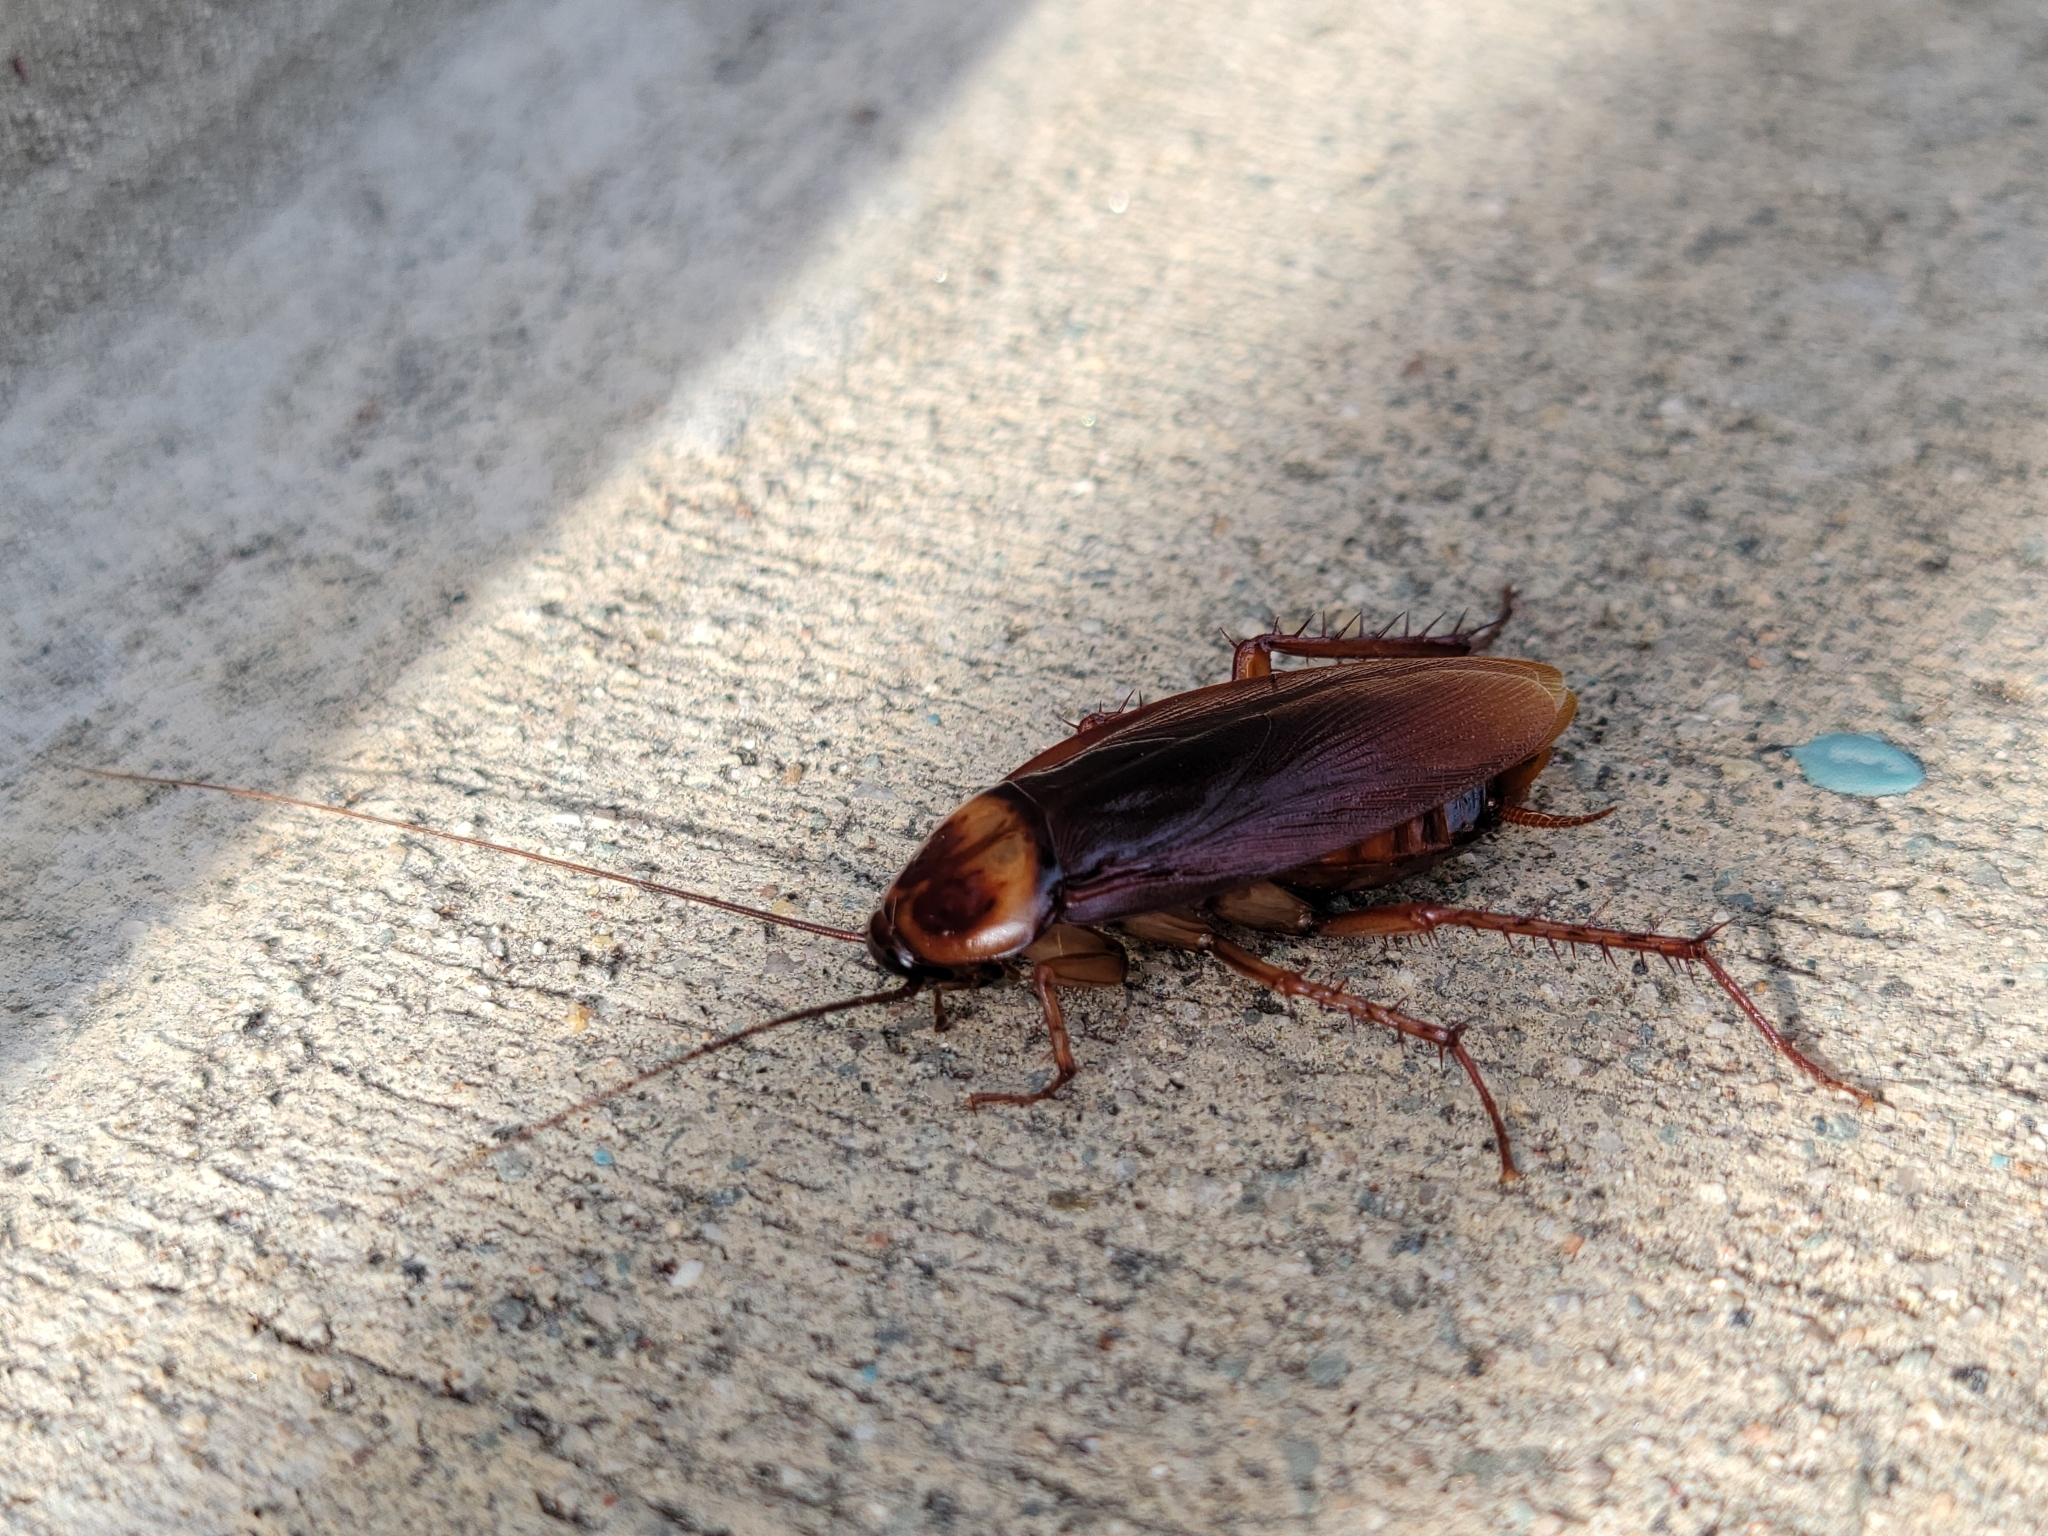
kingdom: Animalia
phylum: Arthropoda
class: Insecta
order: Blattodea
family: Blattidae
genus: Periplaneta
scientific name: Periplaneta americana
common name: American cockroach
